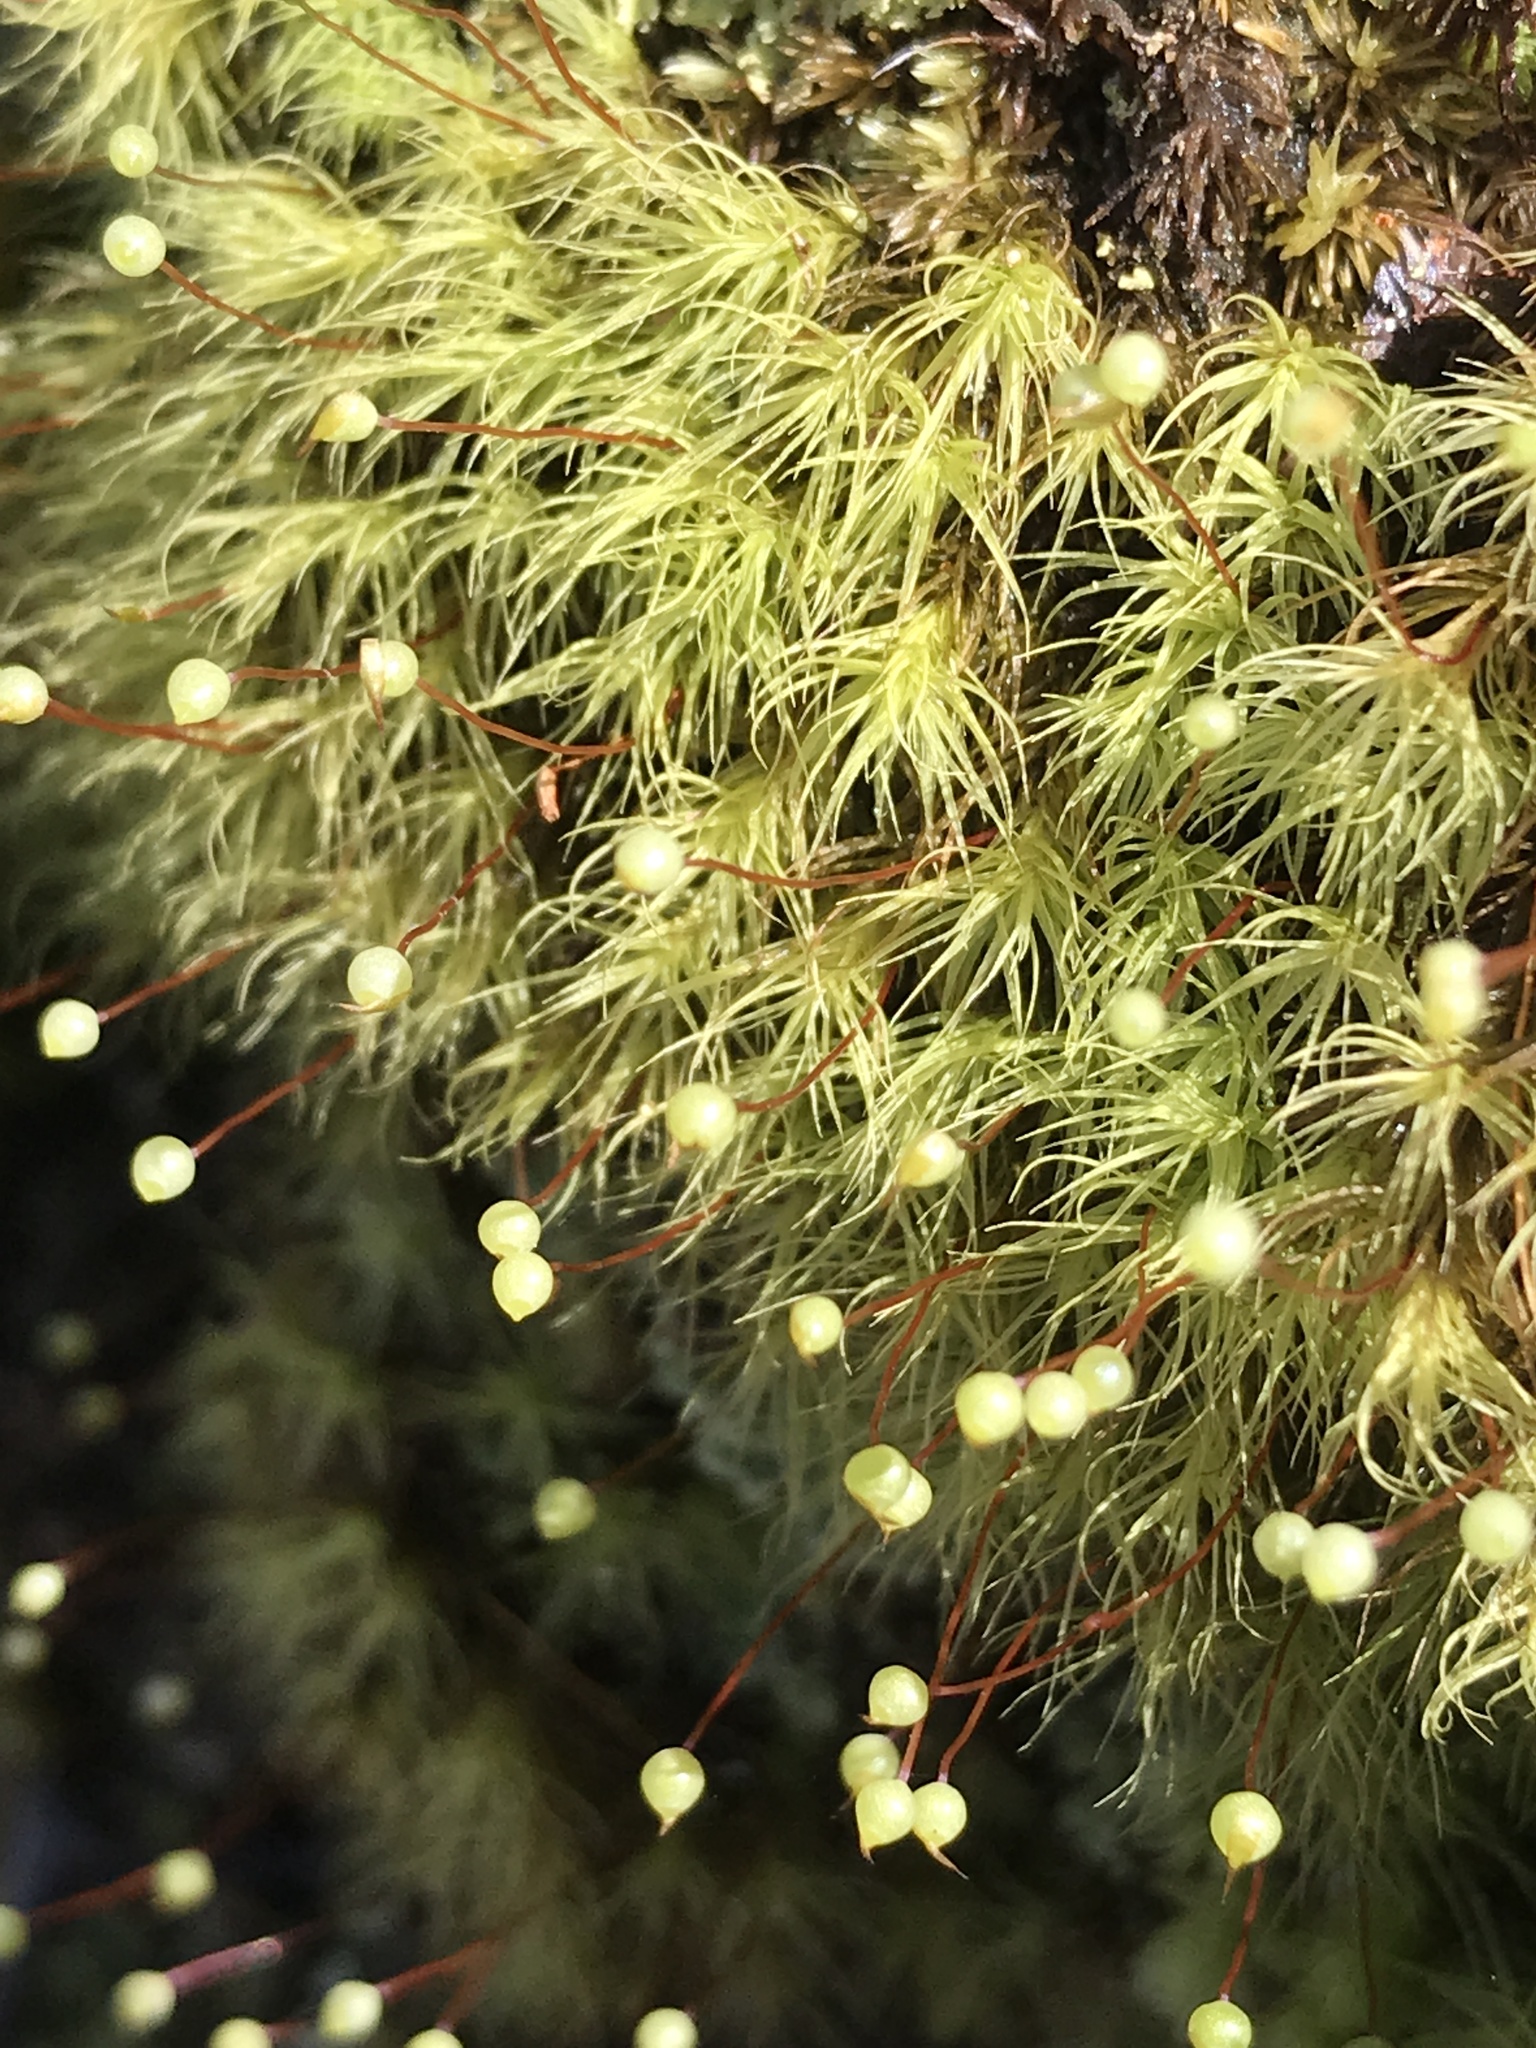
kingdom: Plantae
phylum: Bryophyta
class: Bryopsida
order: Bartramiales
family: Bartramiaceae
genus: Bartramia
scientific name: Bartramia ithyphylla
